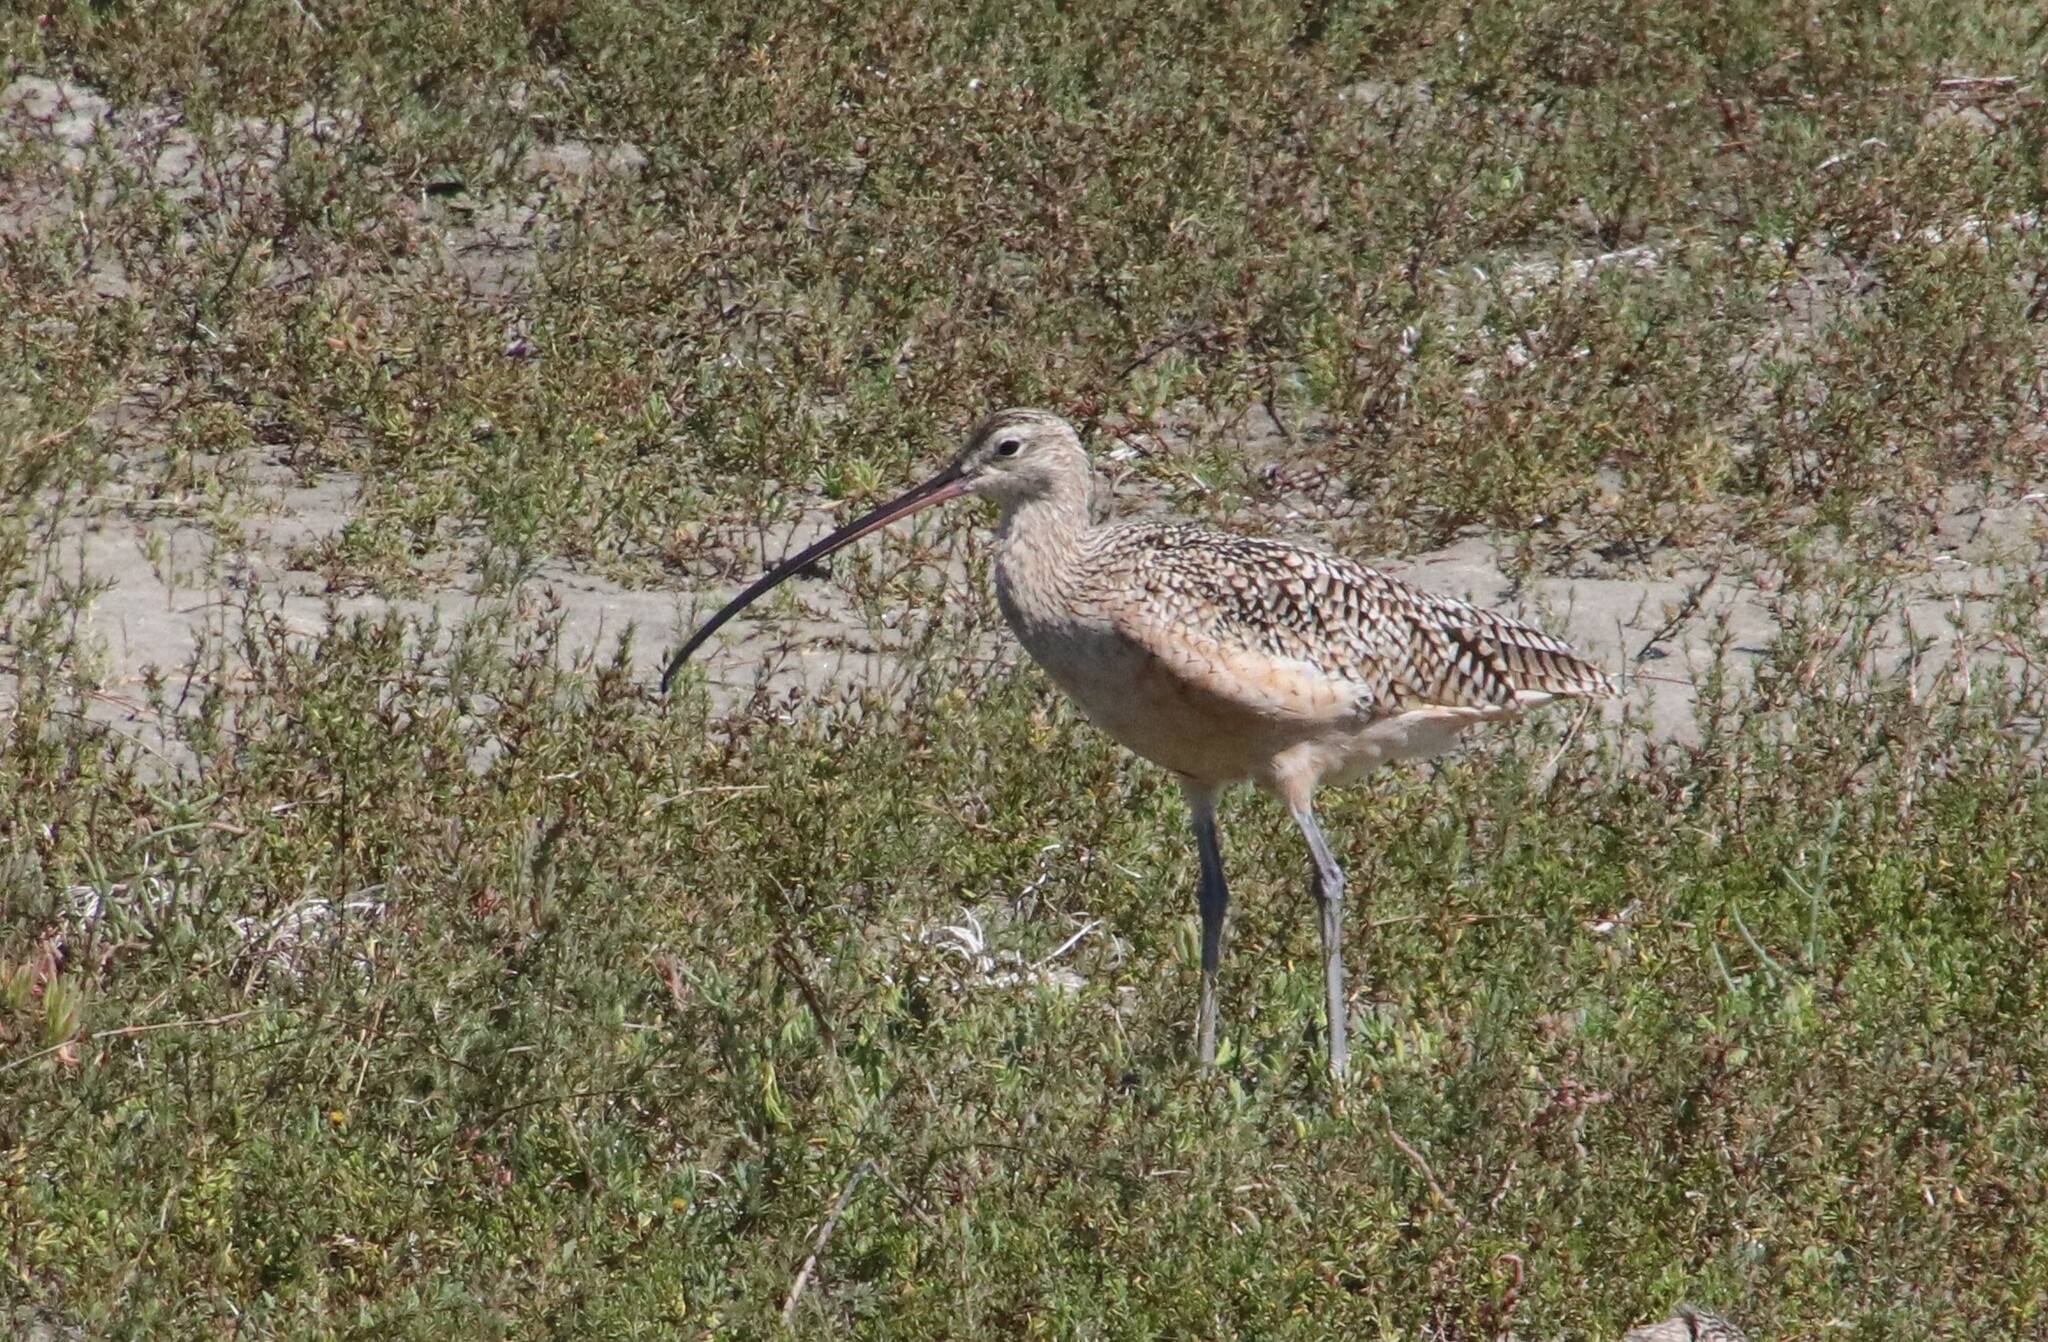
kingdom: Animalia
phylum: Chordata
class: Aves
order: Charadriiformes
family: Scolopacidae
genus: Numenius
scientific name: Numenius americanus
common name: Long-billed curlew
